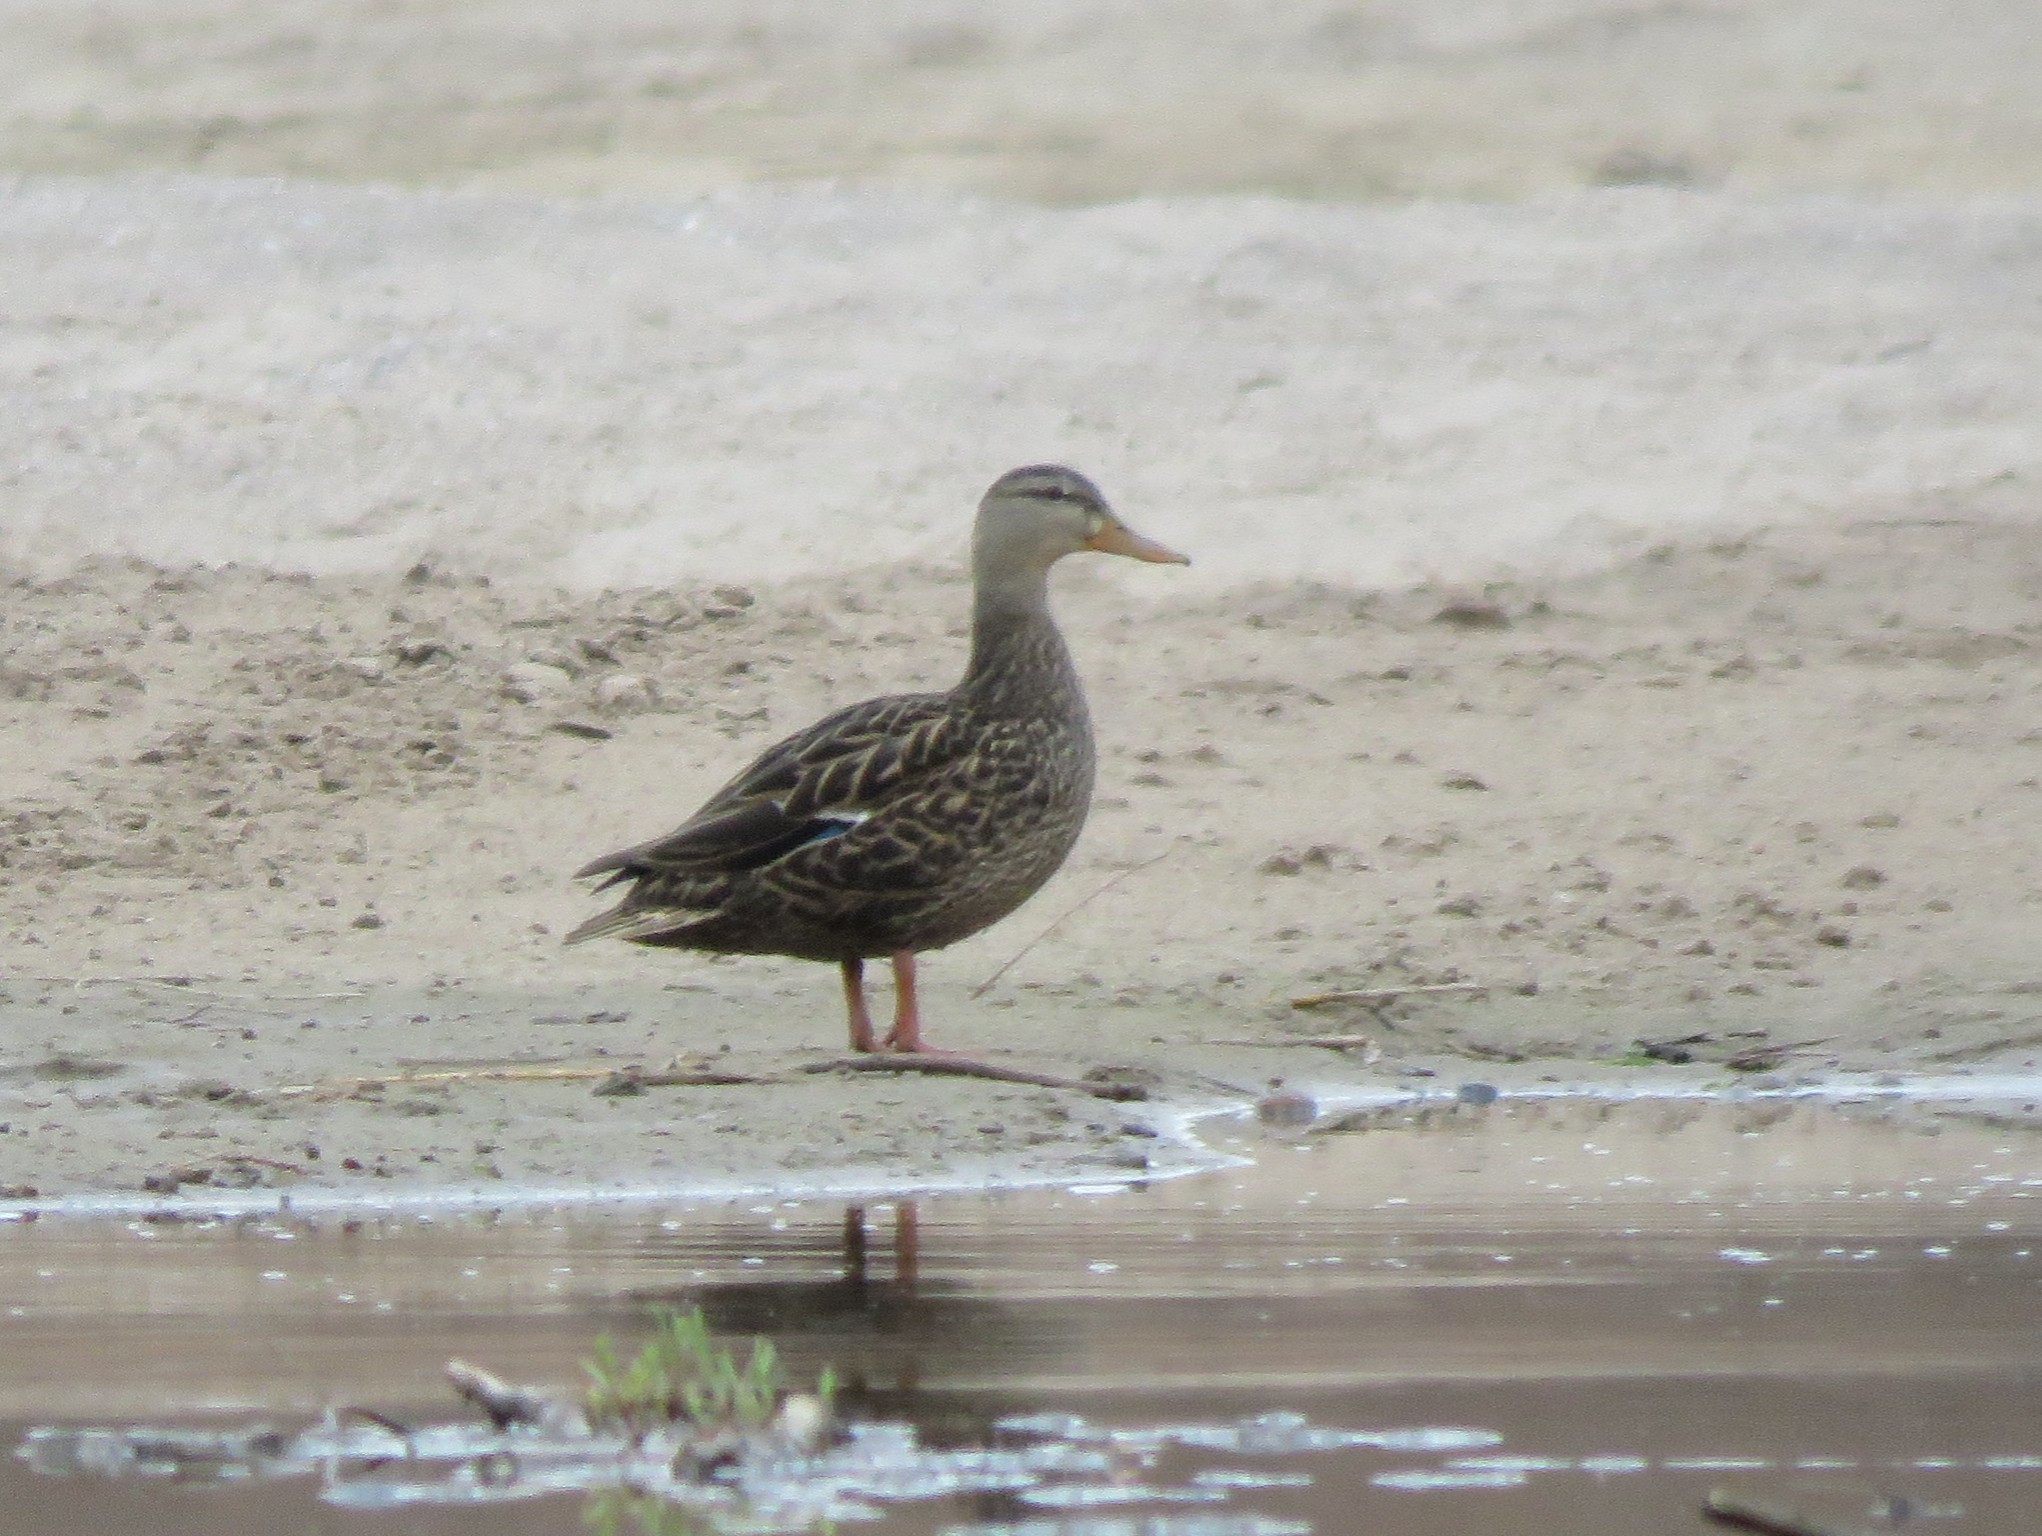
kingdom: Animalia
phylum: Chordata
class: Aves
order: Anseriformes
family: Anatidae
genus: Anas
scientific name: Anas diazi
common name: Mexican duck
